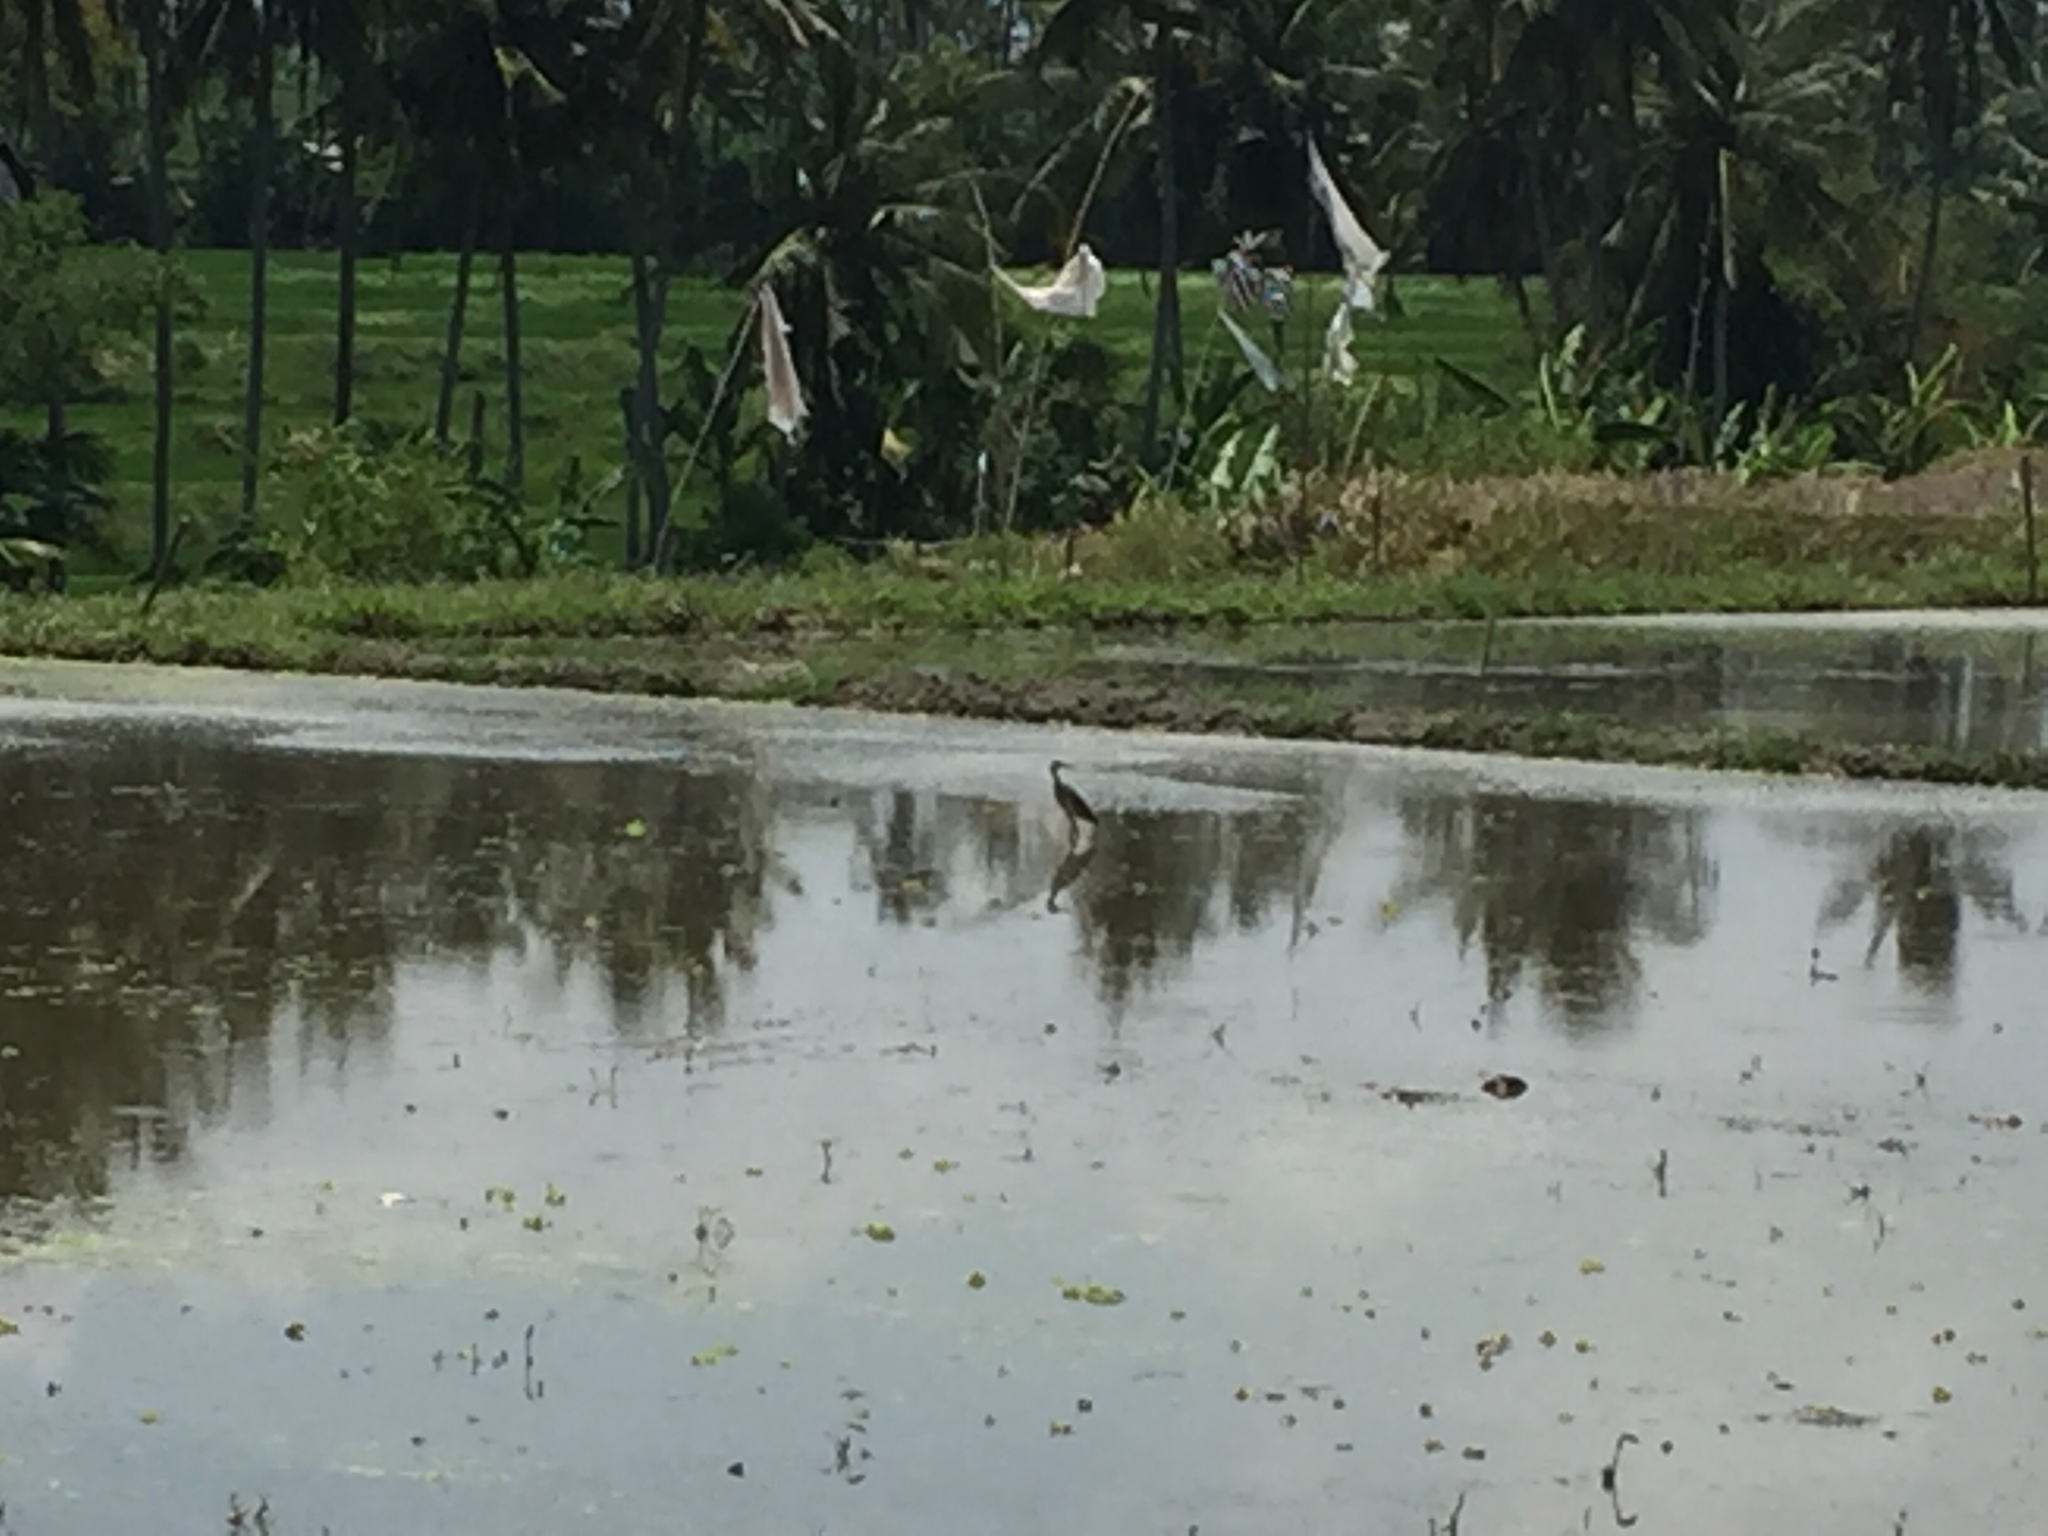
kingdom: Animalia
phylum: Chordata
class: Aves
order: Pelecaniformes
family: Ardeidae
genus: Ardeola
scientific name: Ardeola speciosa
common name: Javan pond heron
